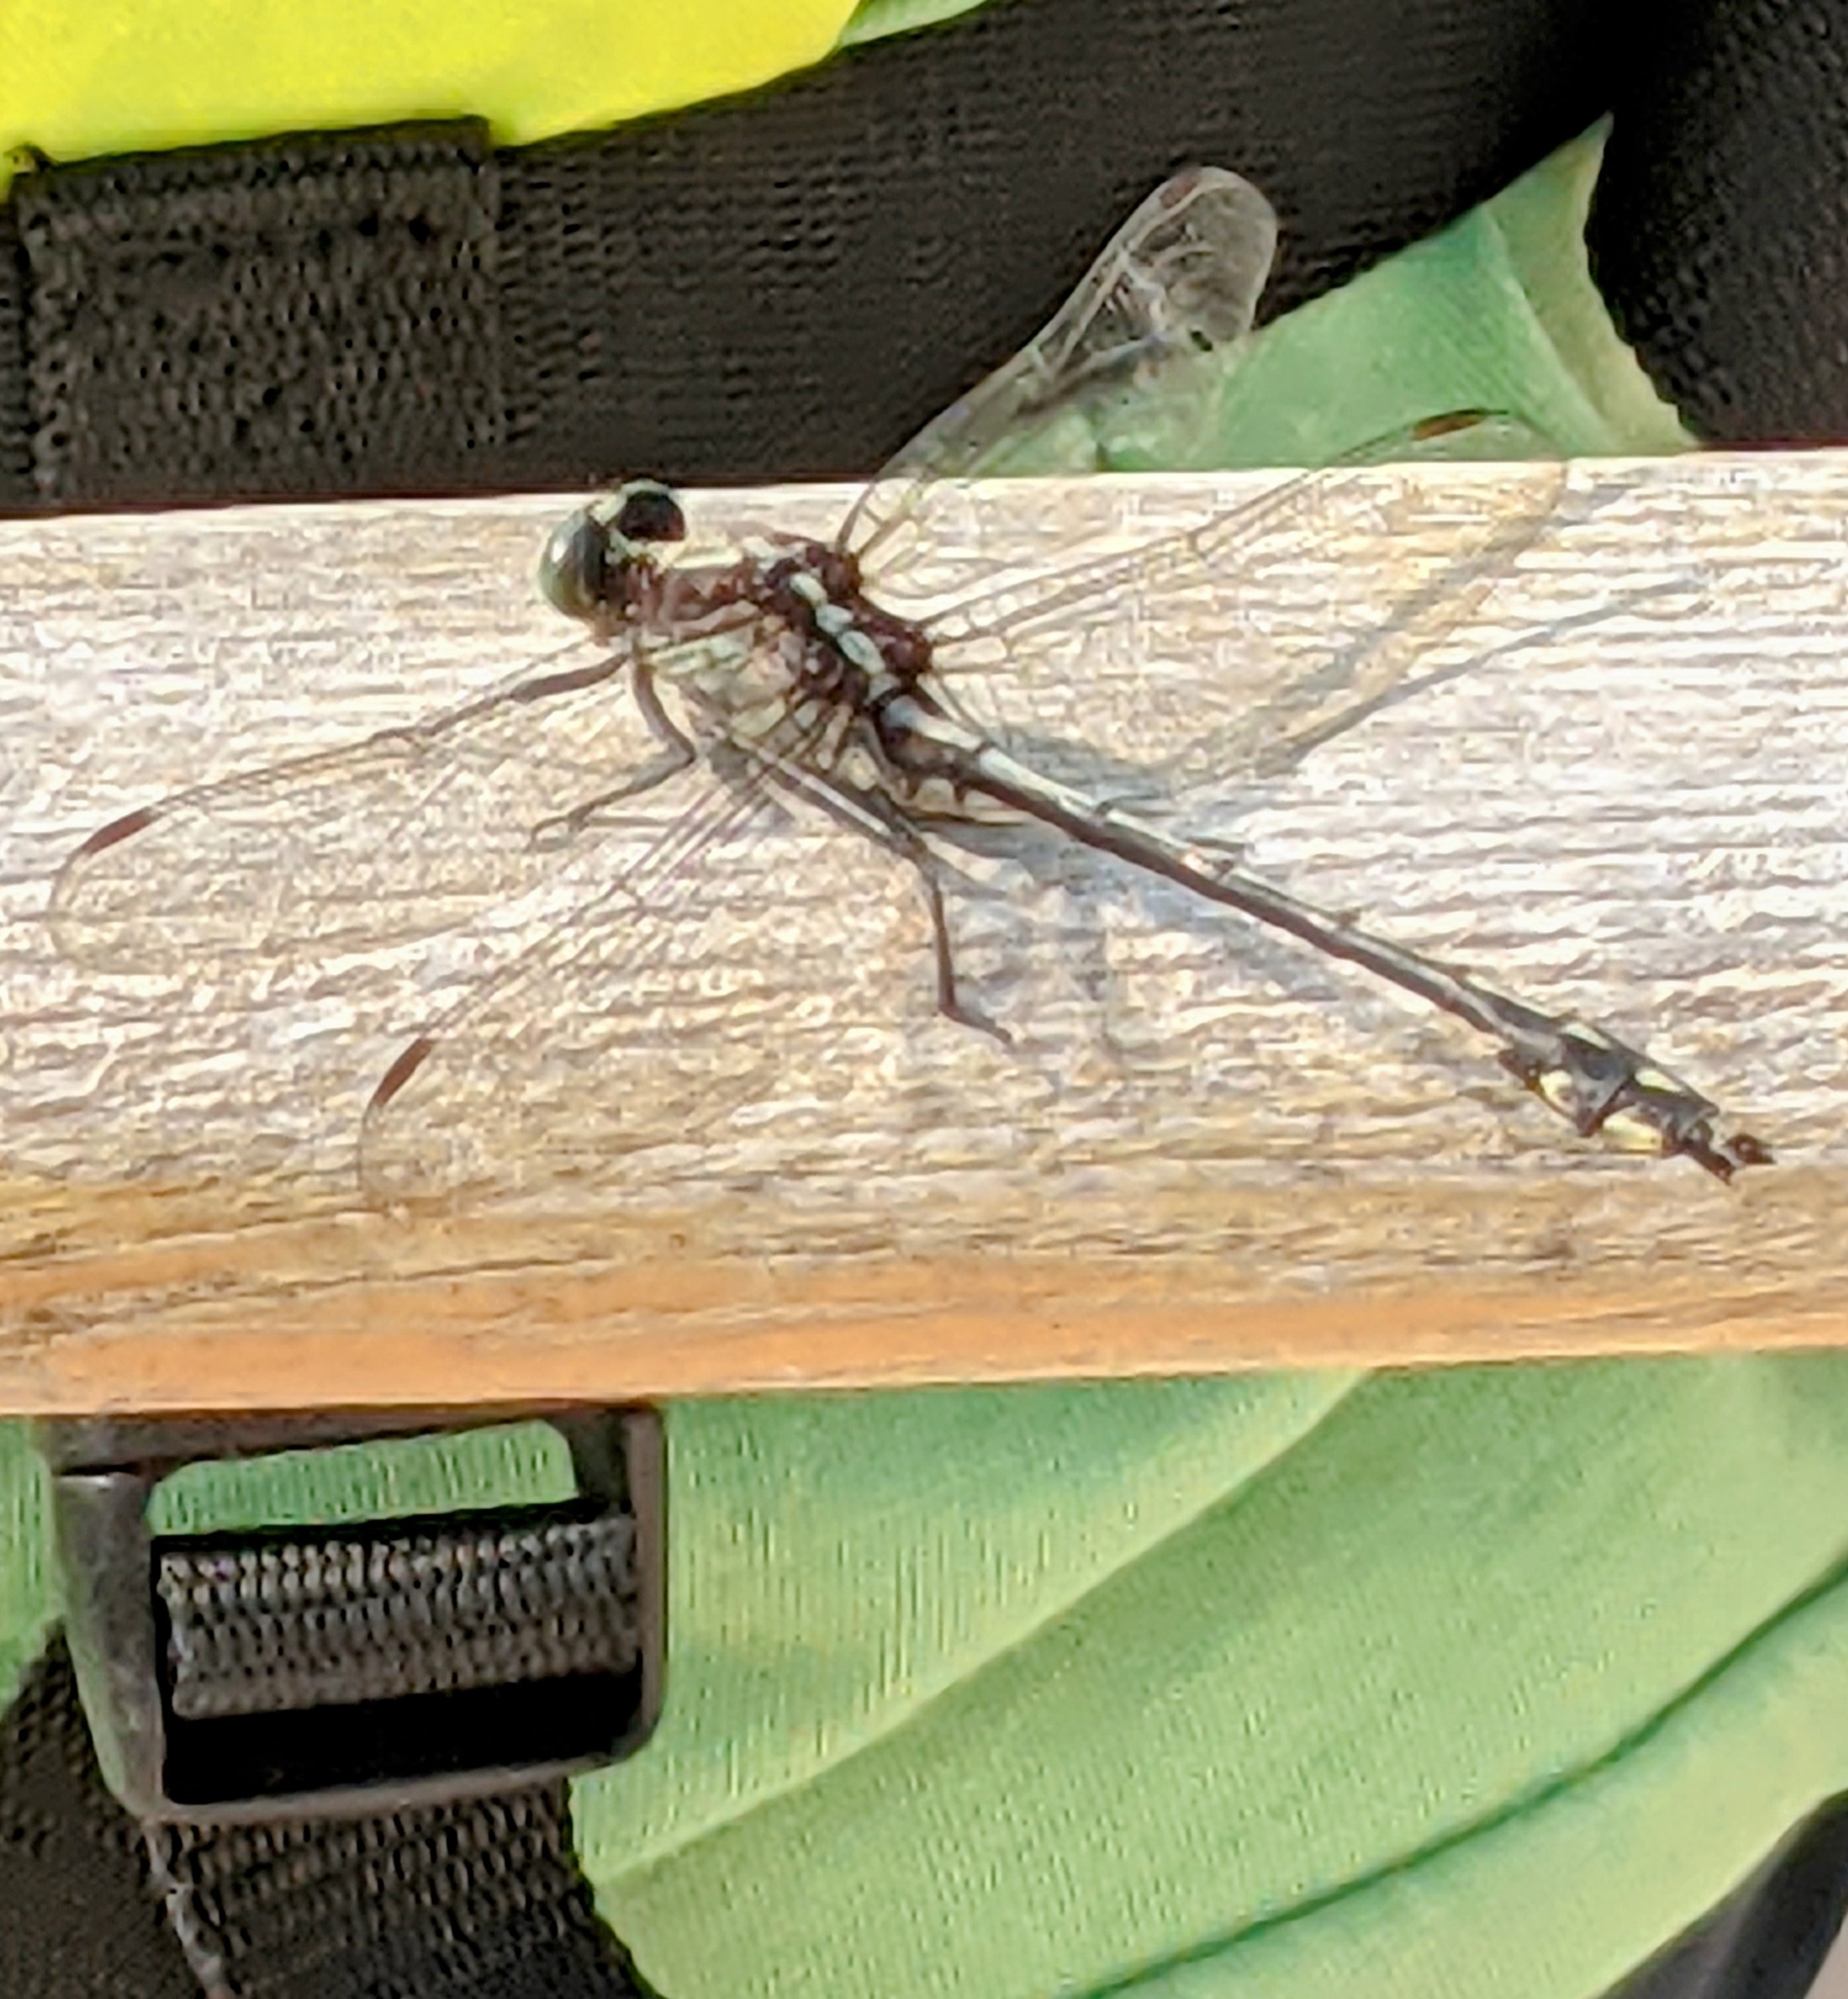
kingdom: Animalia
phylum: Arthropoda
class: Insecta
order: Odonata
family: Gomphidae
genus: Dromogomphus
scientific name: Dromogomphus spinosus
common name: Black-shouldered spinyleg
